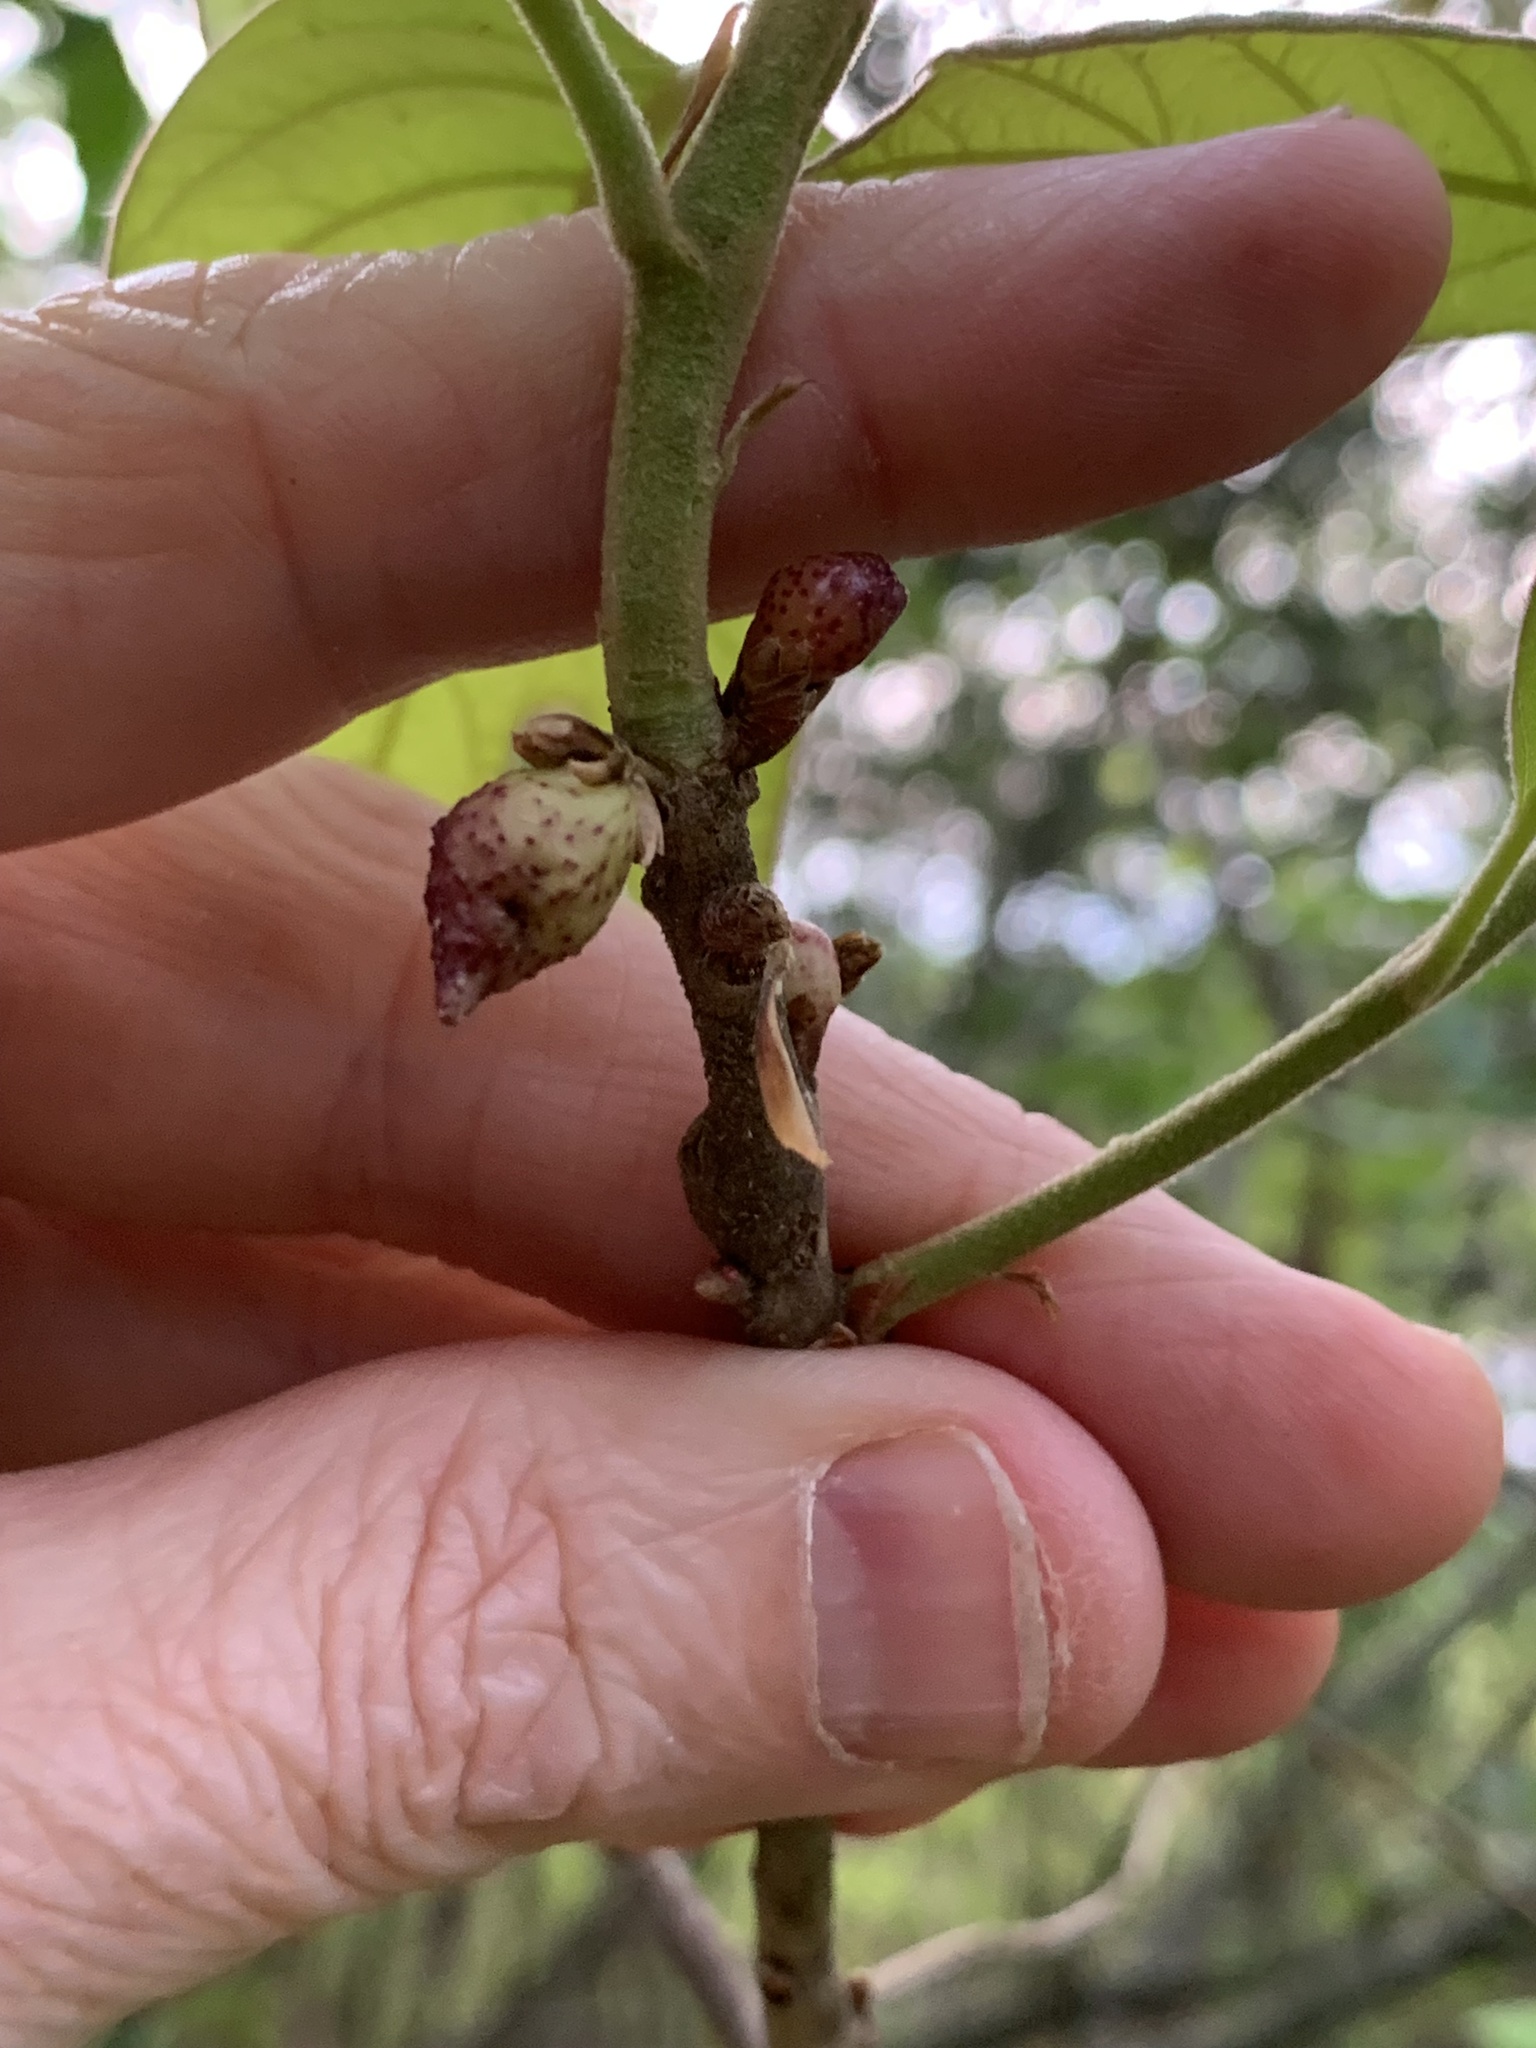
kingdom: Animalia
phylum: Arthropoda
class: Insecta
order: Hymenoptera
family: Cynipidae
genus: Amphibolips
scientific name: Amphibolips
